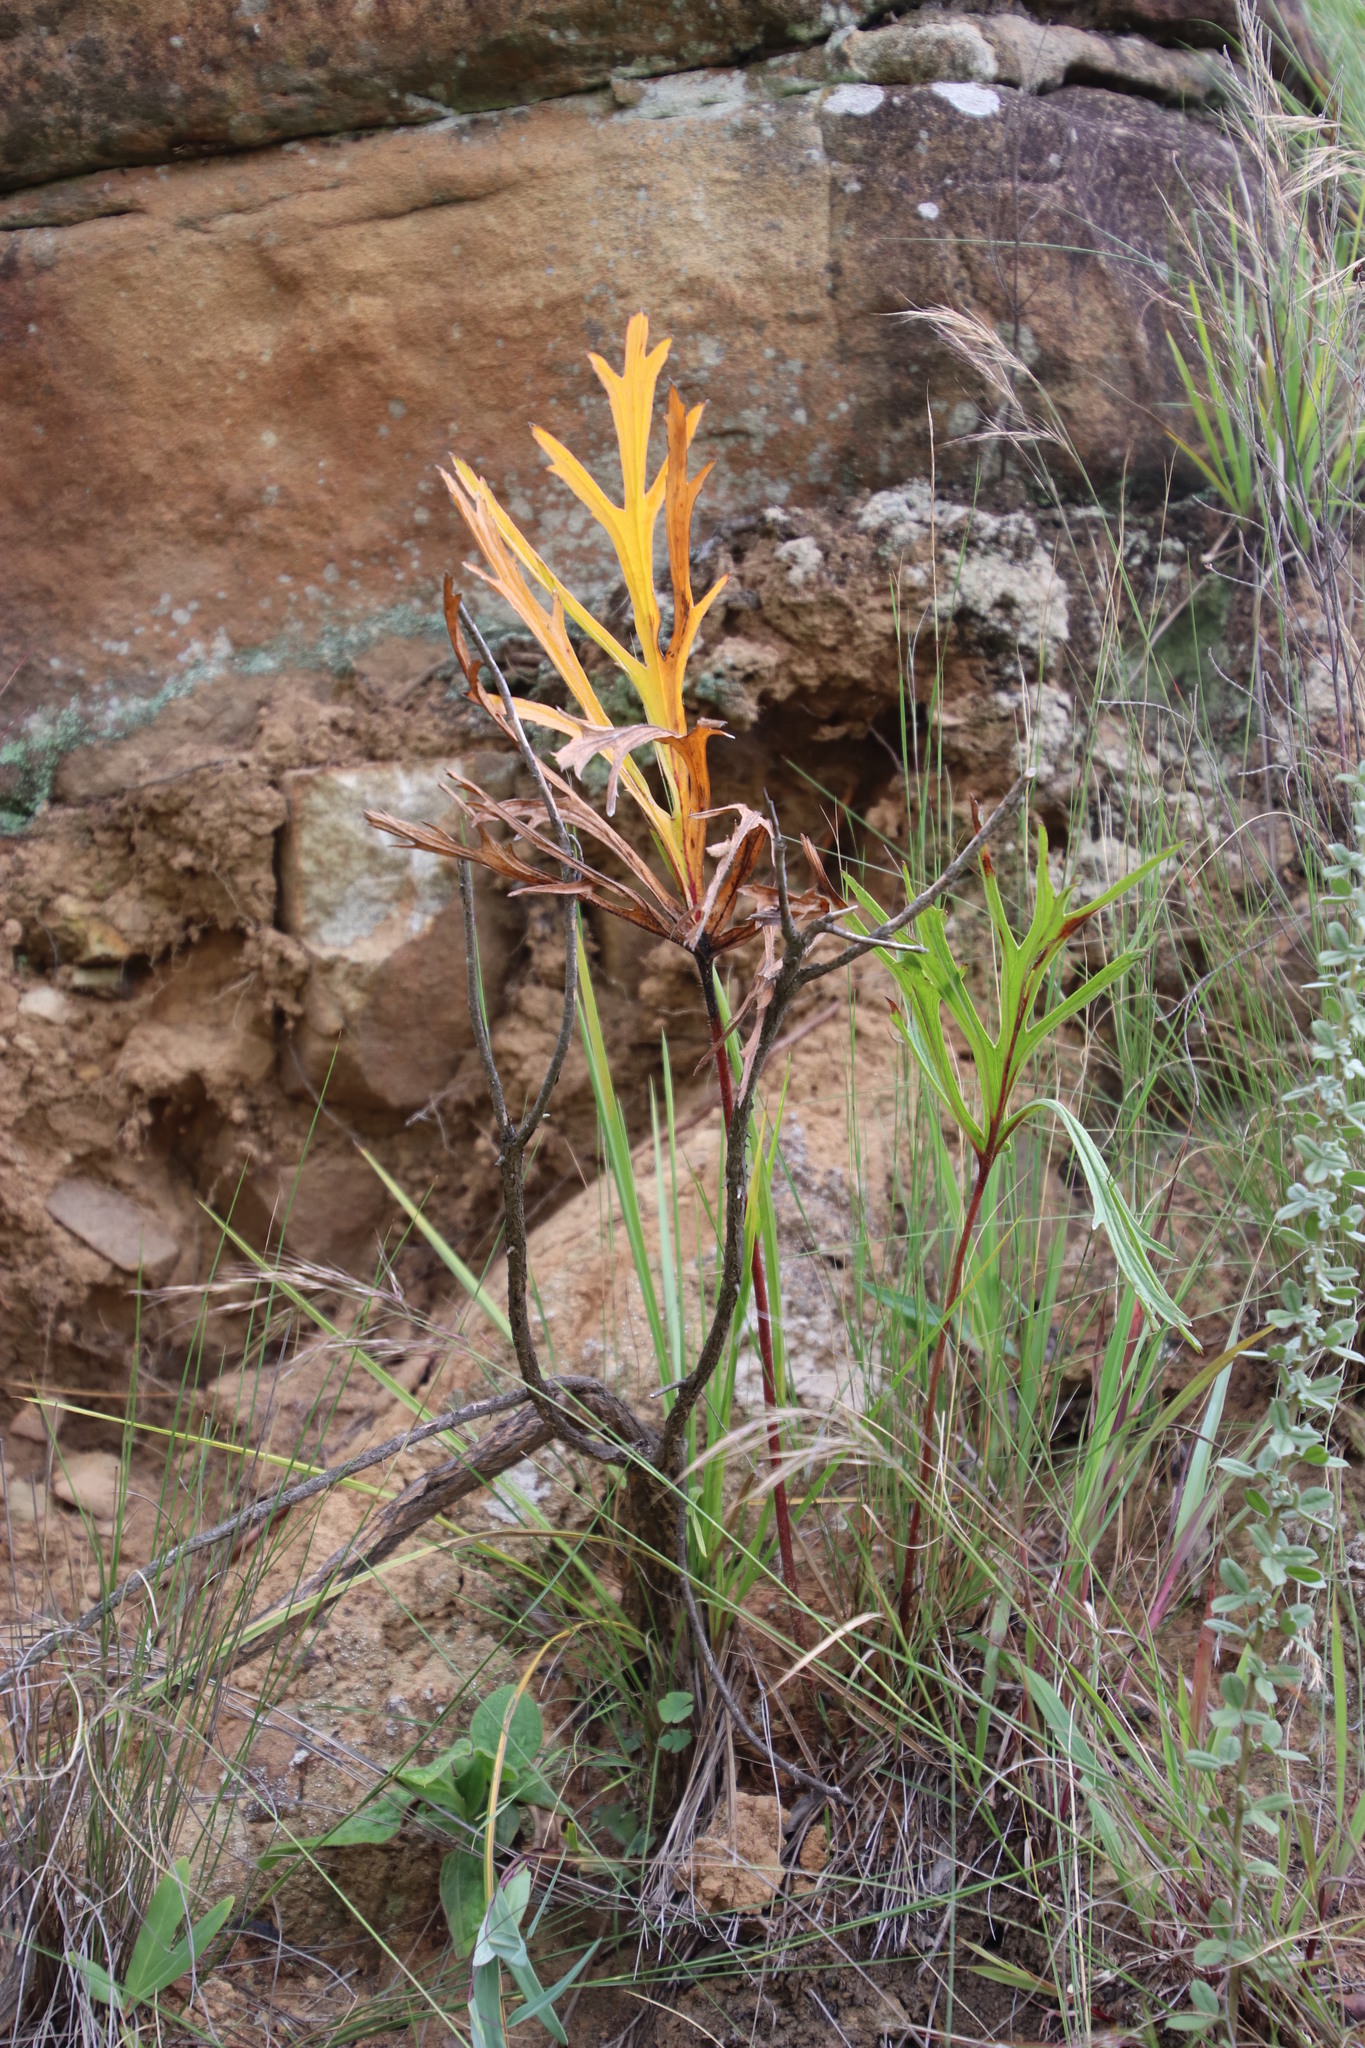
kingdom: Plantae
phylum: Tracheophyta
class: Magnoliopsida
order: Geraniales
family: Geraniaceae
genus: Pelargonium
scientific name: Pelargonium luridum
